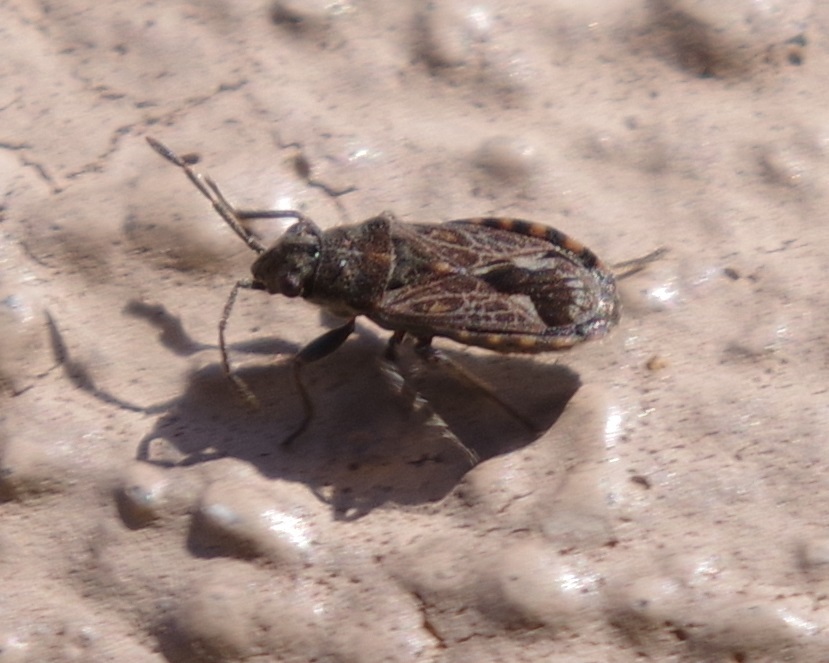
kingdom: Animalia
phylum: Arthropoda
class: Insecta
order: Hemiptera
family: Lygaeidae
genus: Lygaeosoma
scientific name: Lygaeosoma sardeum
